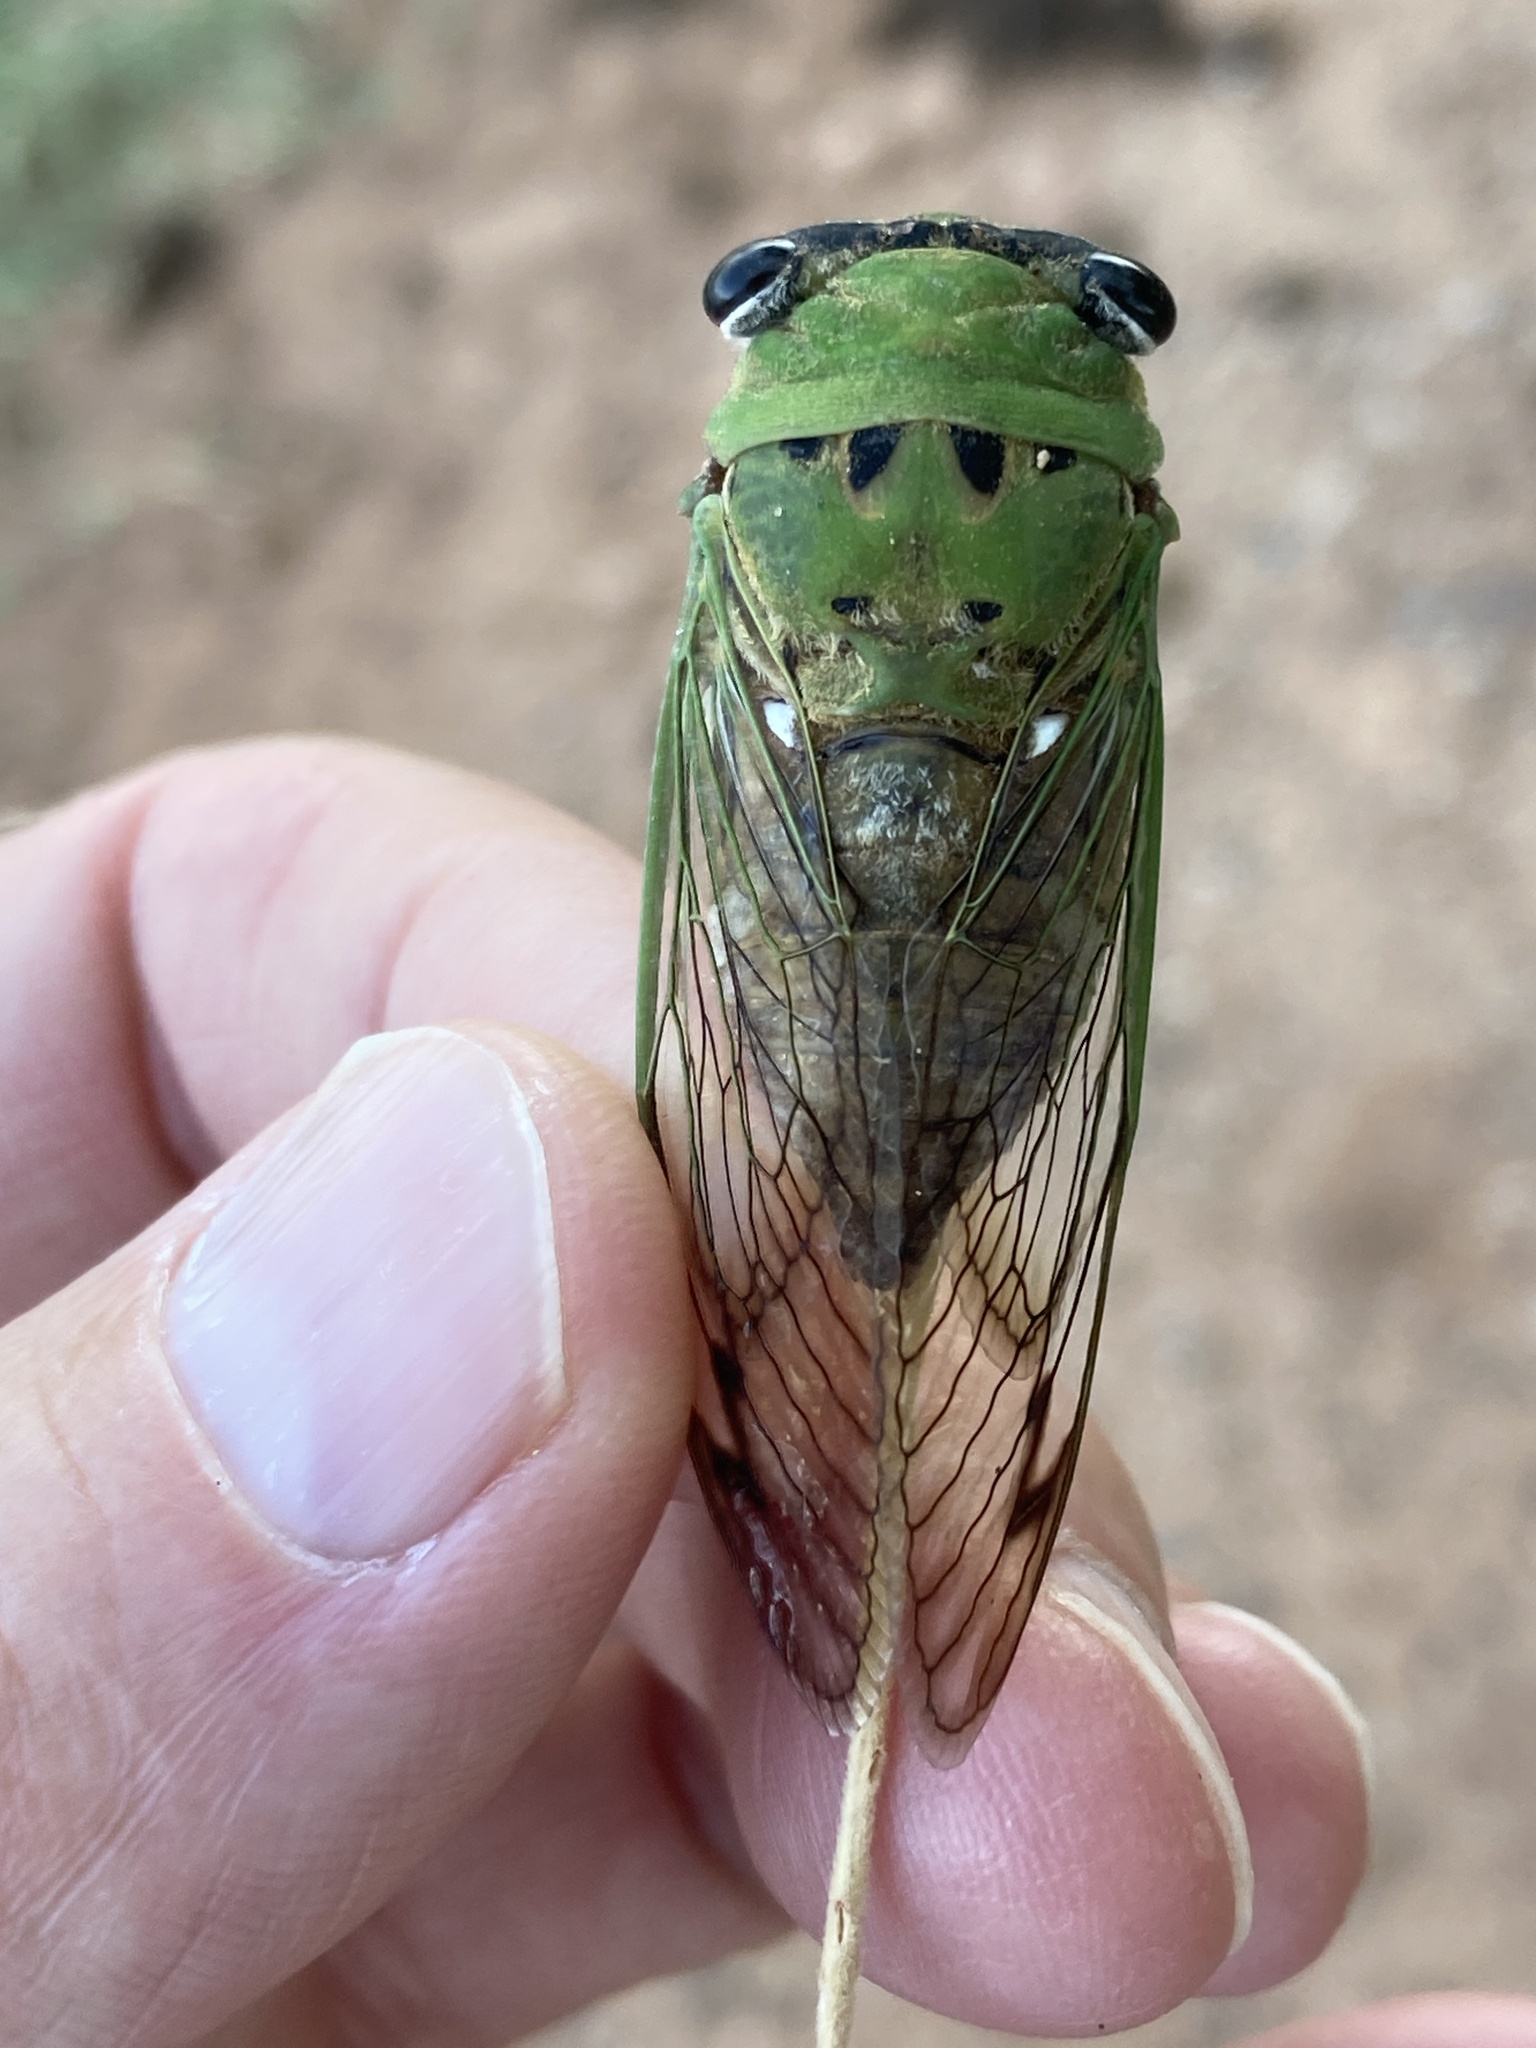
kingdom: Animalia
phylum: Arthropoda
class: Insecta
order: Hemiptera
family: Cicadidae
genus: Neotibicen
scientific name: Neotibicen superbus
